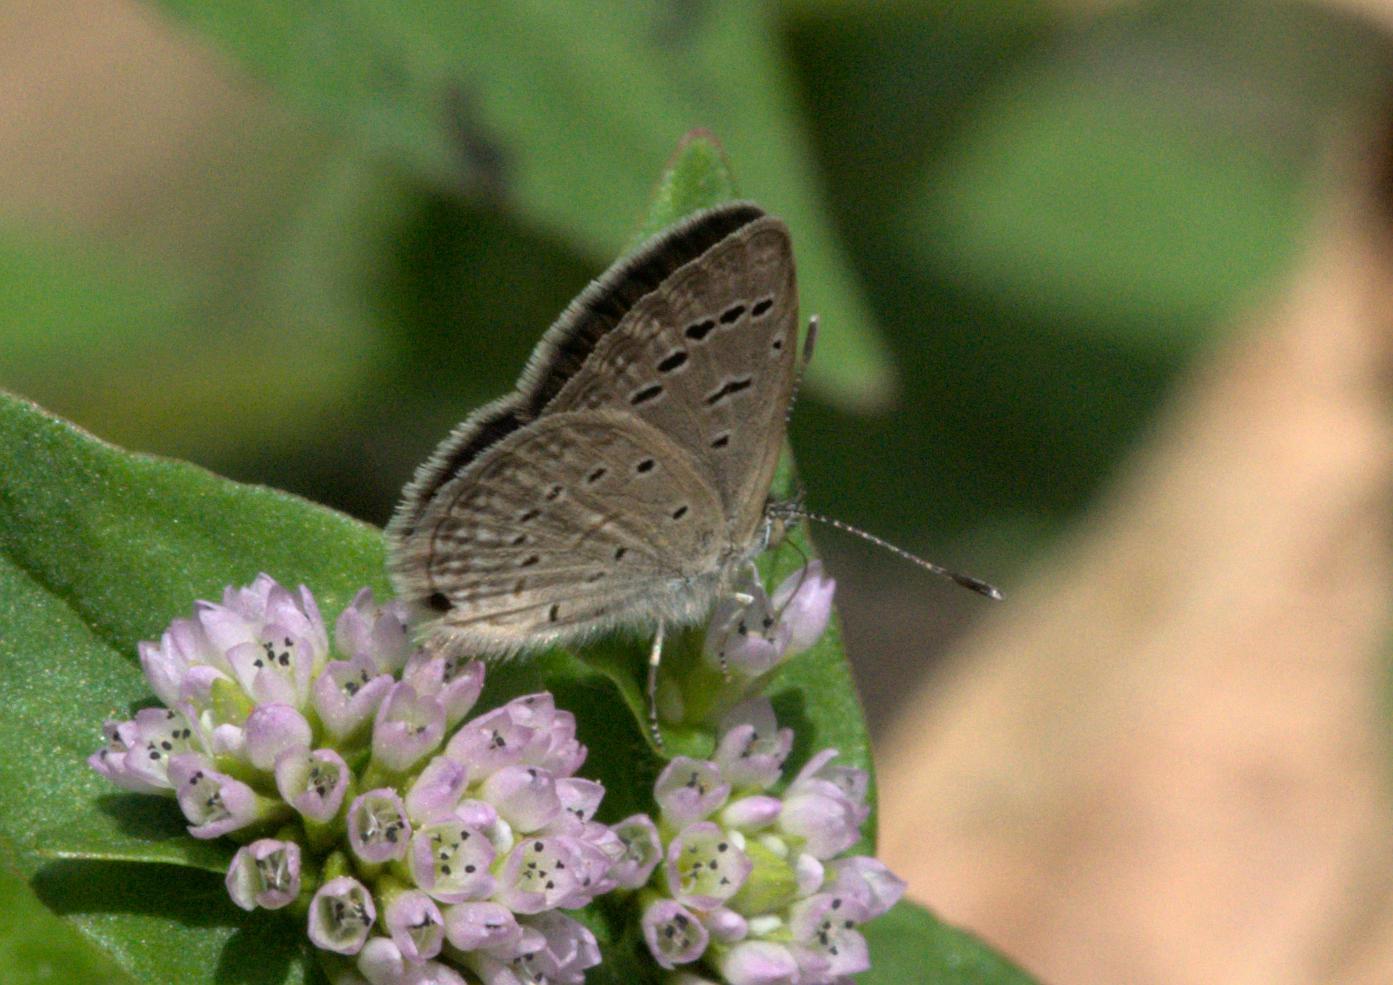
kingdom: Animalia
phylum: Arthropoda
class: Insecta
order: Lepidoptera
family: Lycaenidae
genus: Pseudozizeeria
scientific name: Pseudozizeeria maha
